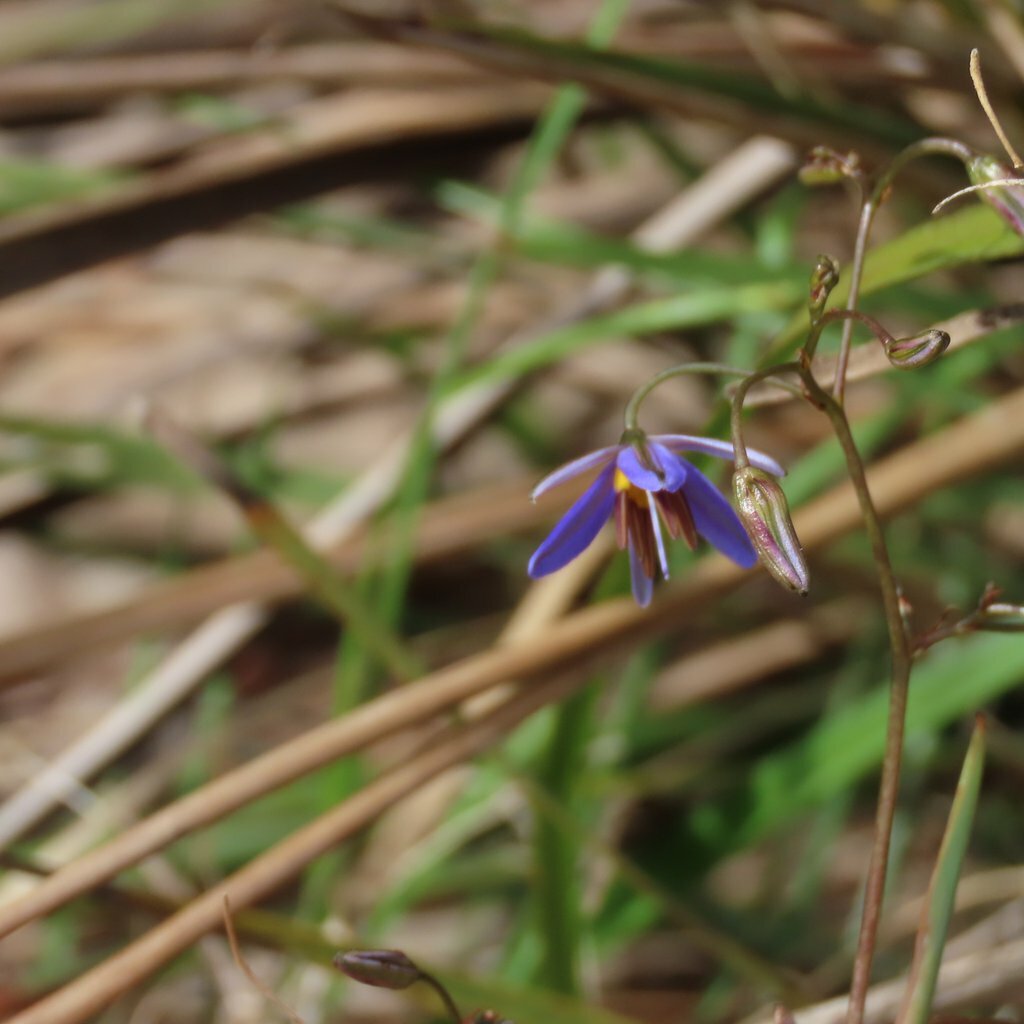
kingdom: Plantae
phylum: Tracheophyta
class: Liliopsida
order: Asparagales
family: Asphodelaceae
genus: Dianella
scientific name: Dianella revoluta
